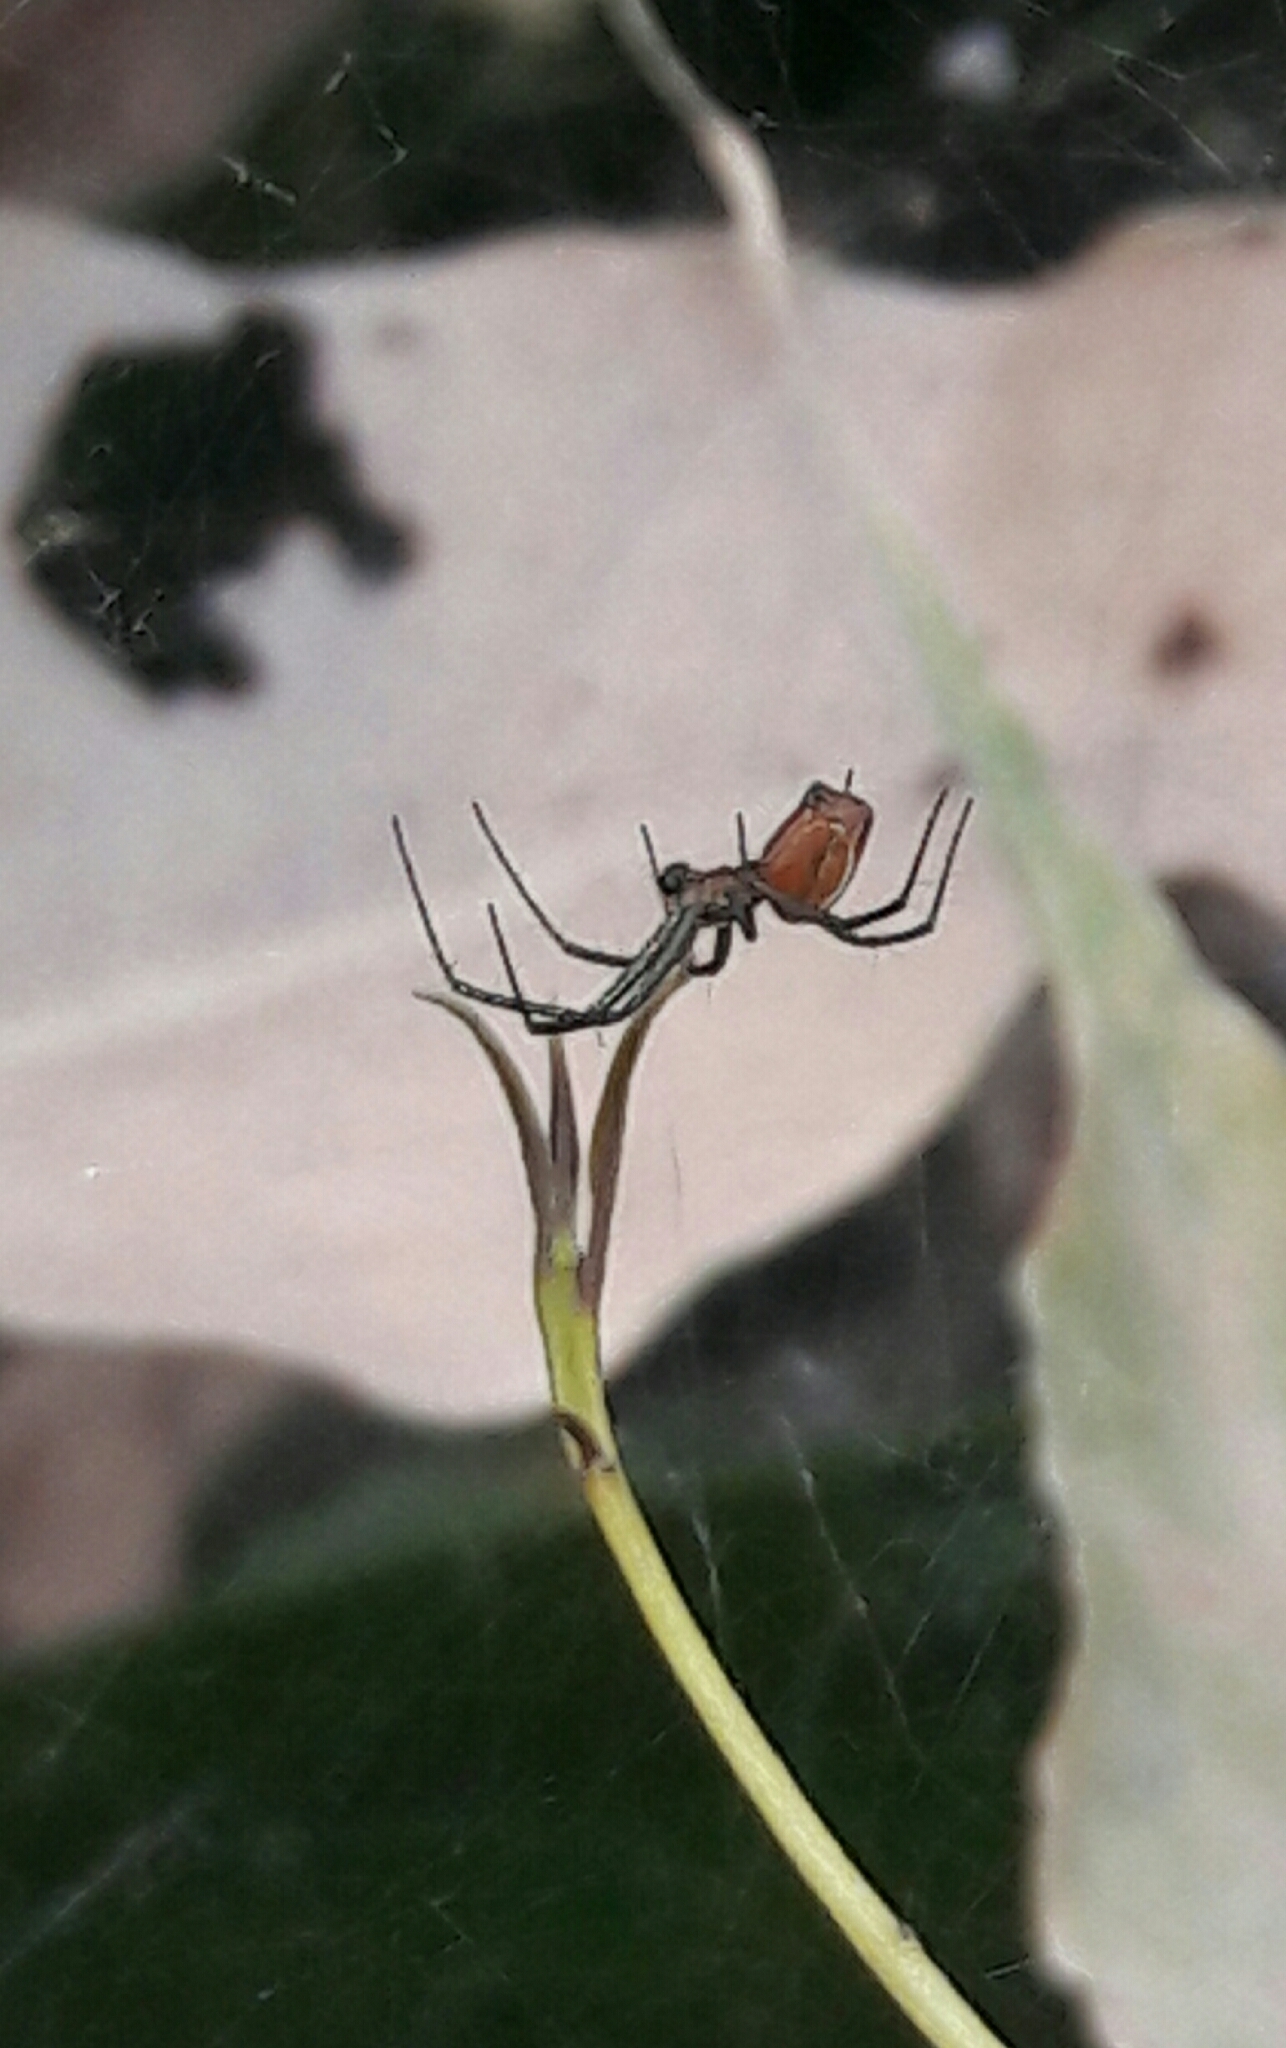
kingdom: Animalia
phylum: Arthropoda
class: Arachnida
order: Araneae
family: Araneidae
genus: Manogea
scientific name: Manogea porracea
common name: Orb weavers
